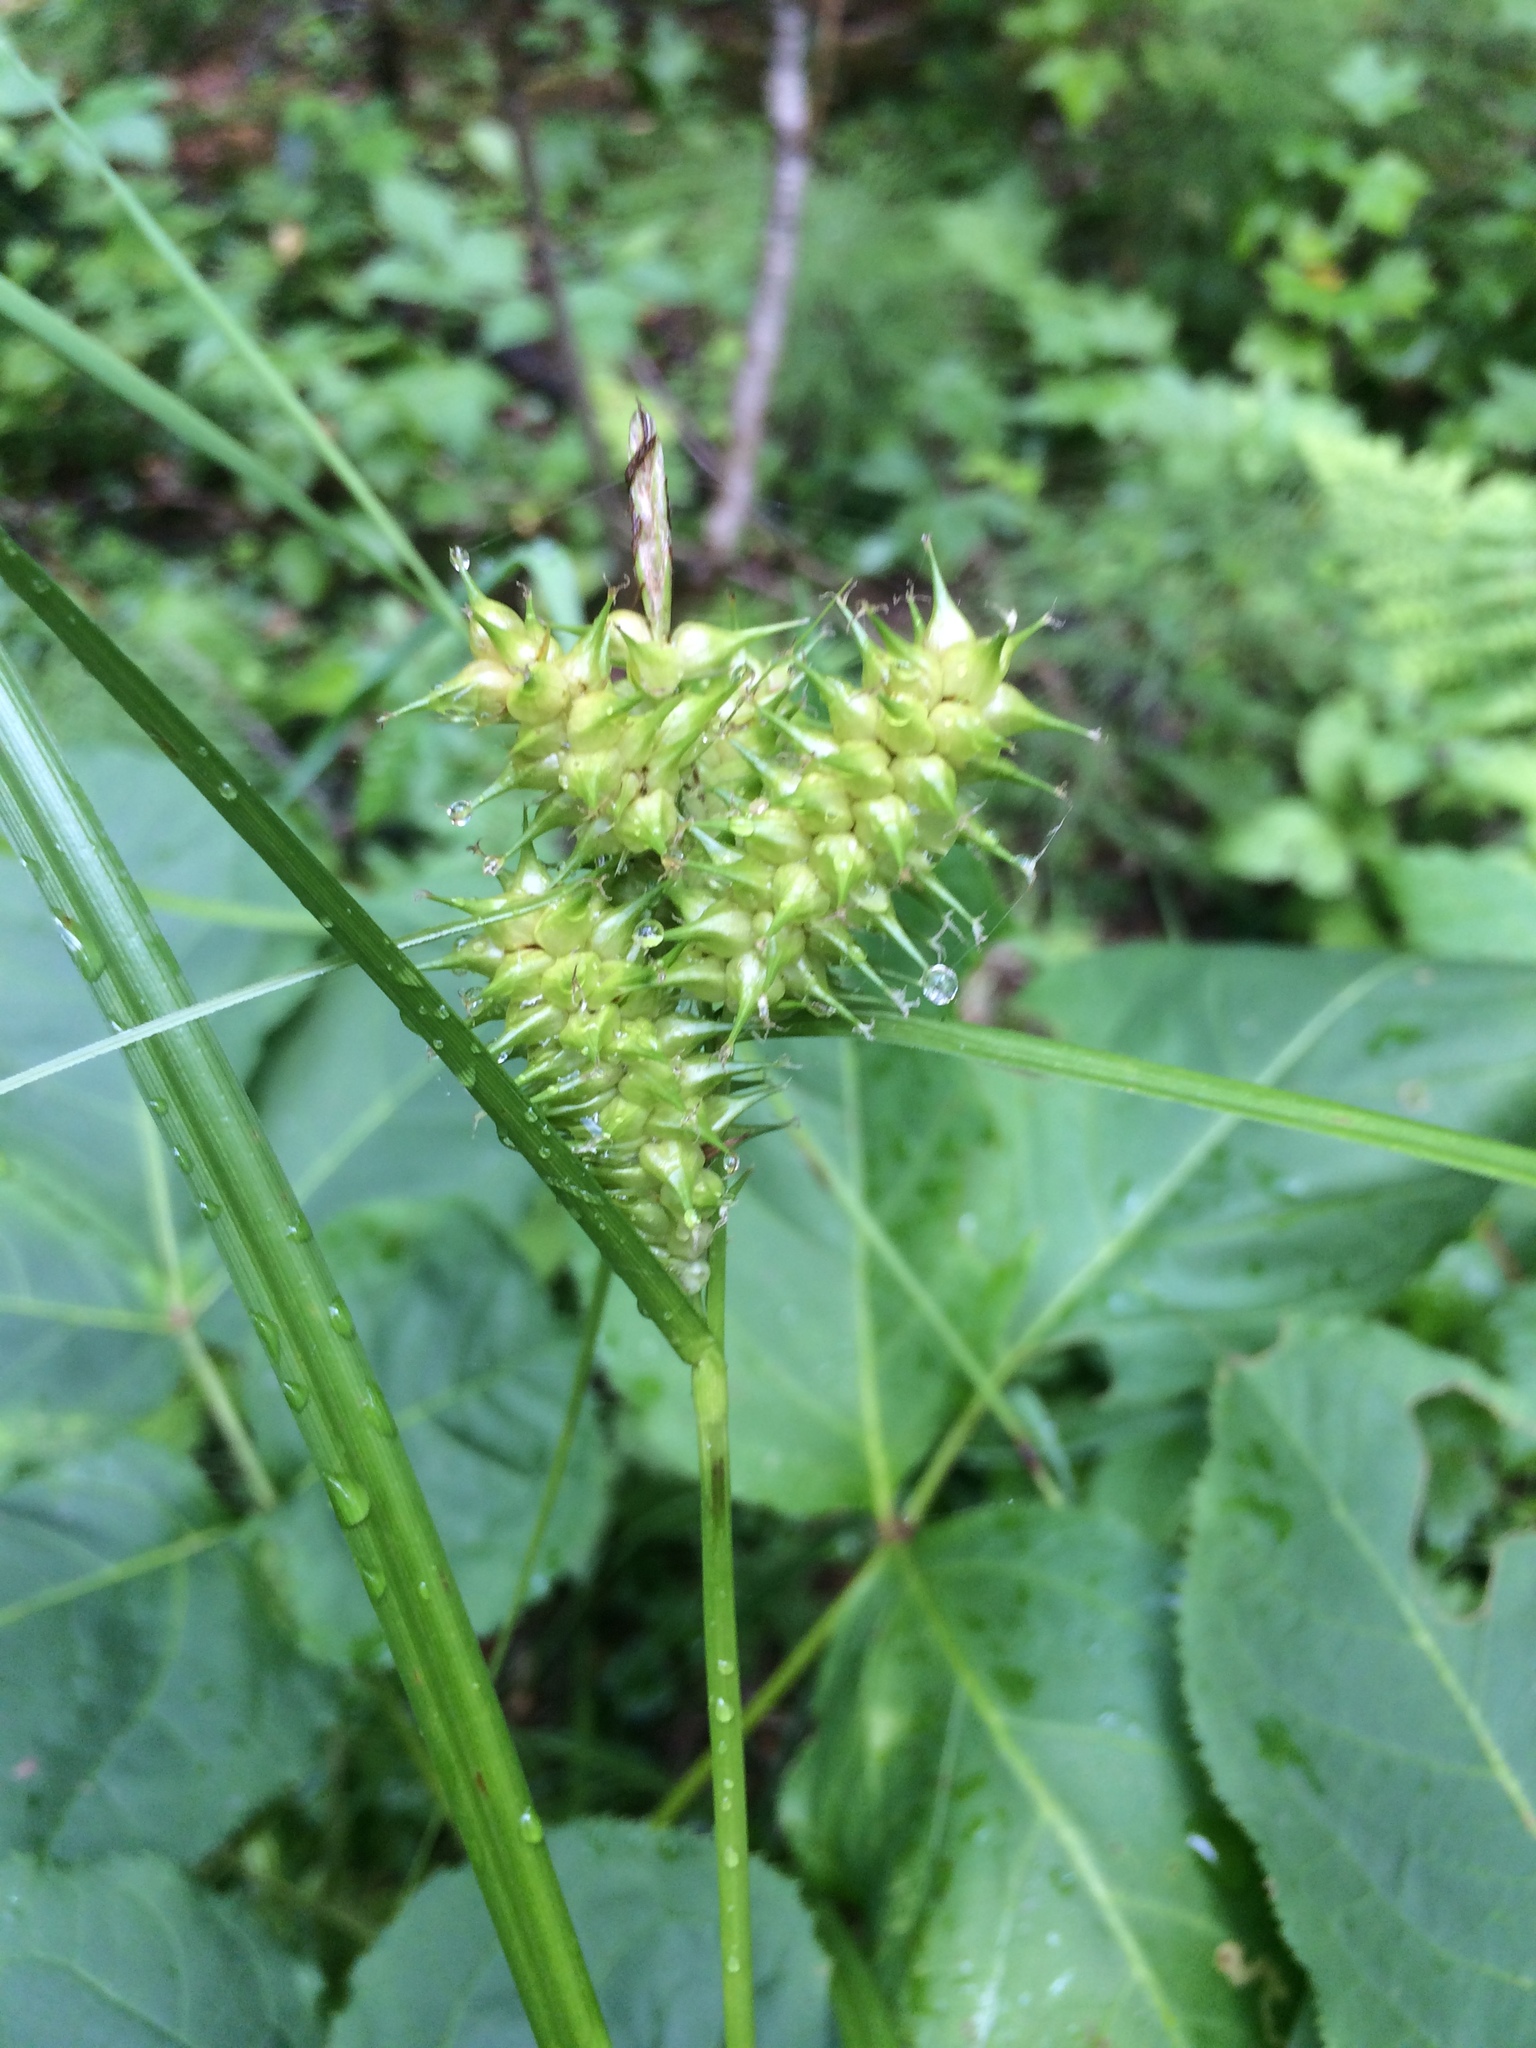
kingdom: Plantae
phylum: Tracheophyta
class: Liliopsida
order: Poales
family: Cyperaceae
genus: Carex
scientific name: Carex retrorsa
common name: Knot-sheath sedge
